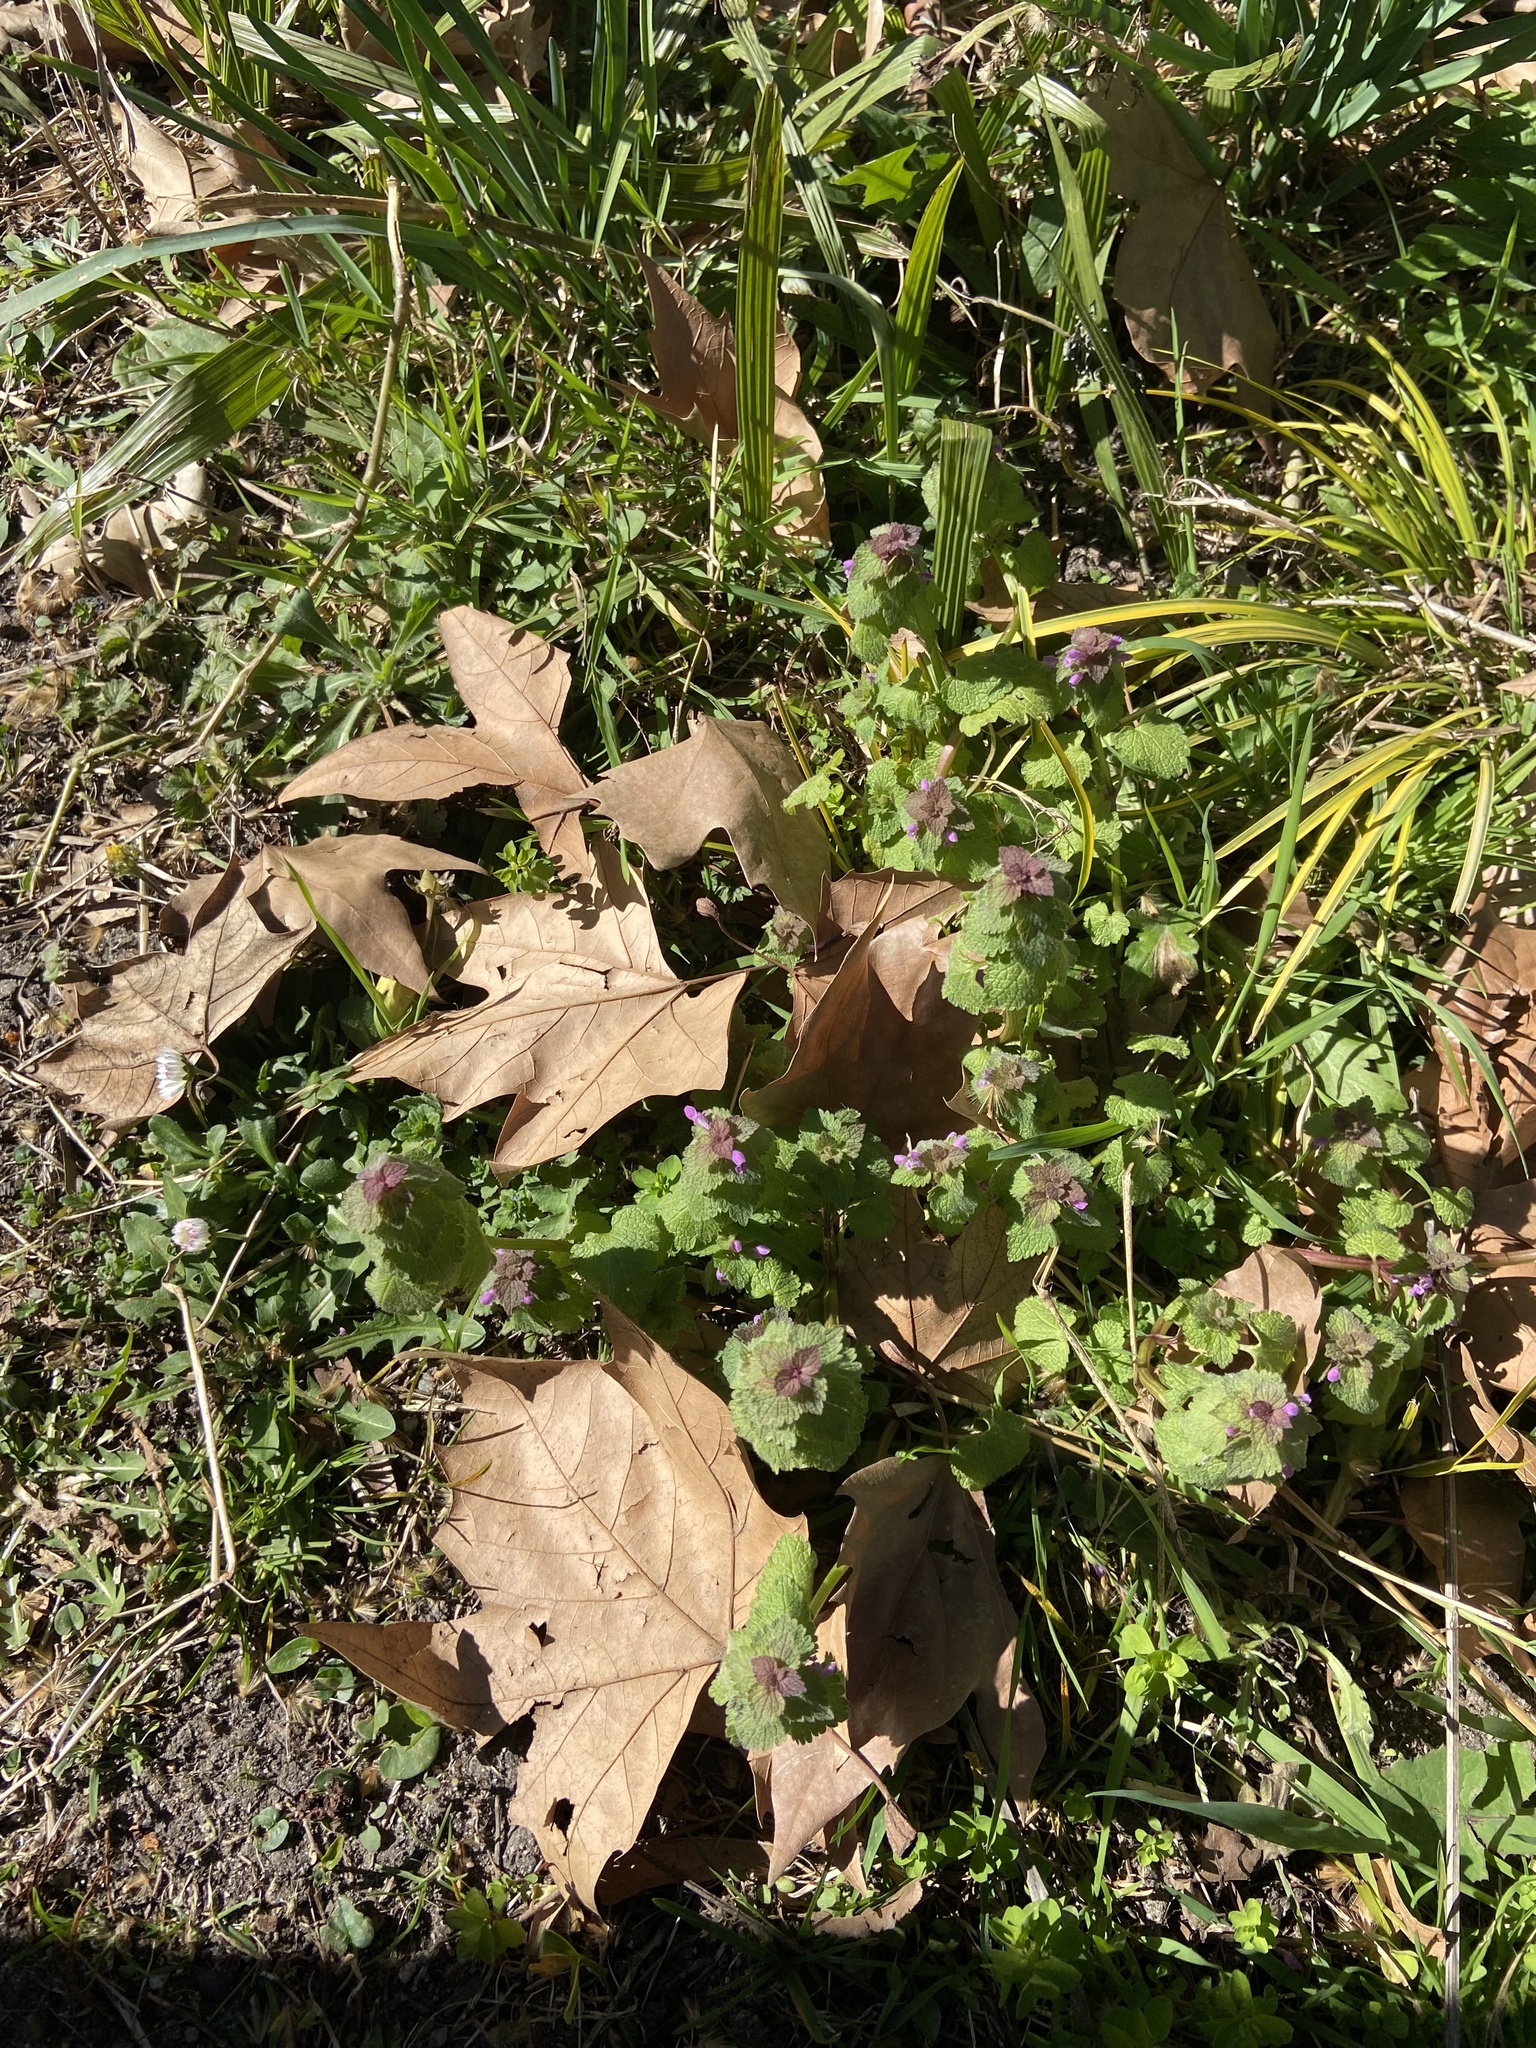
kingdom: Plantae
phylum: Tracheophyta
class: Magnoliopsida
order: Lamiales
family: Lamiaceae
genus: Lamium
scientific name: Lamium purpureum
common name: Red dead-nettle
